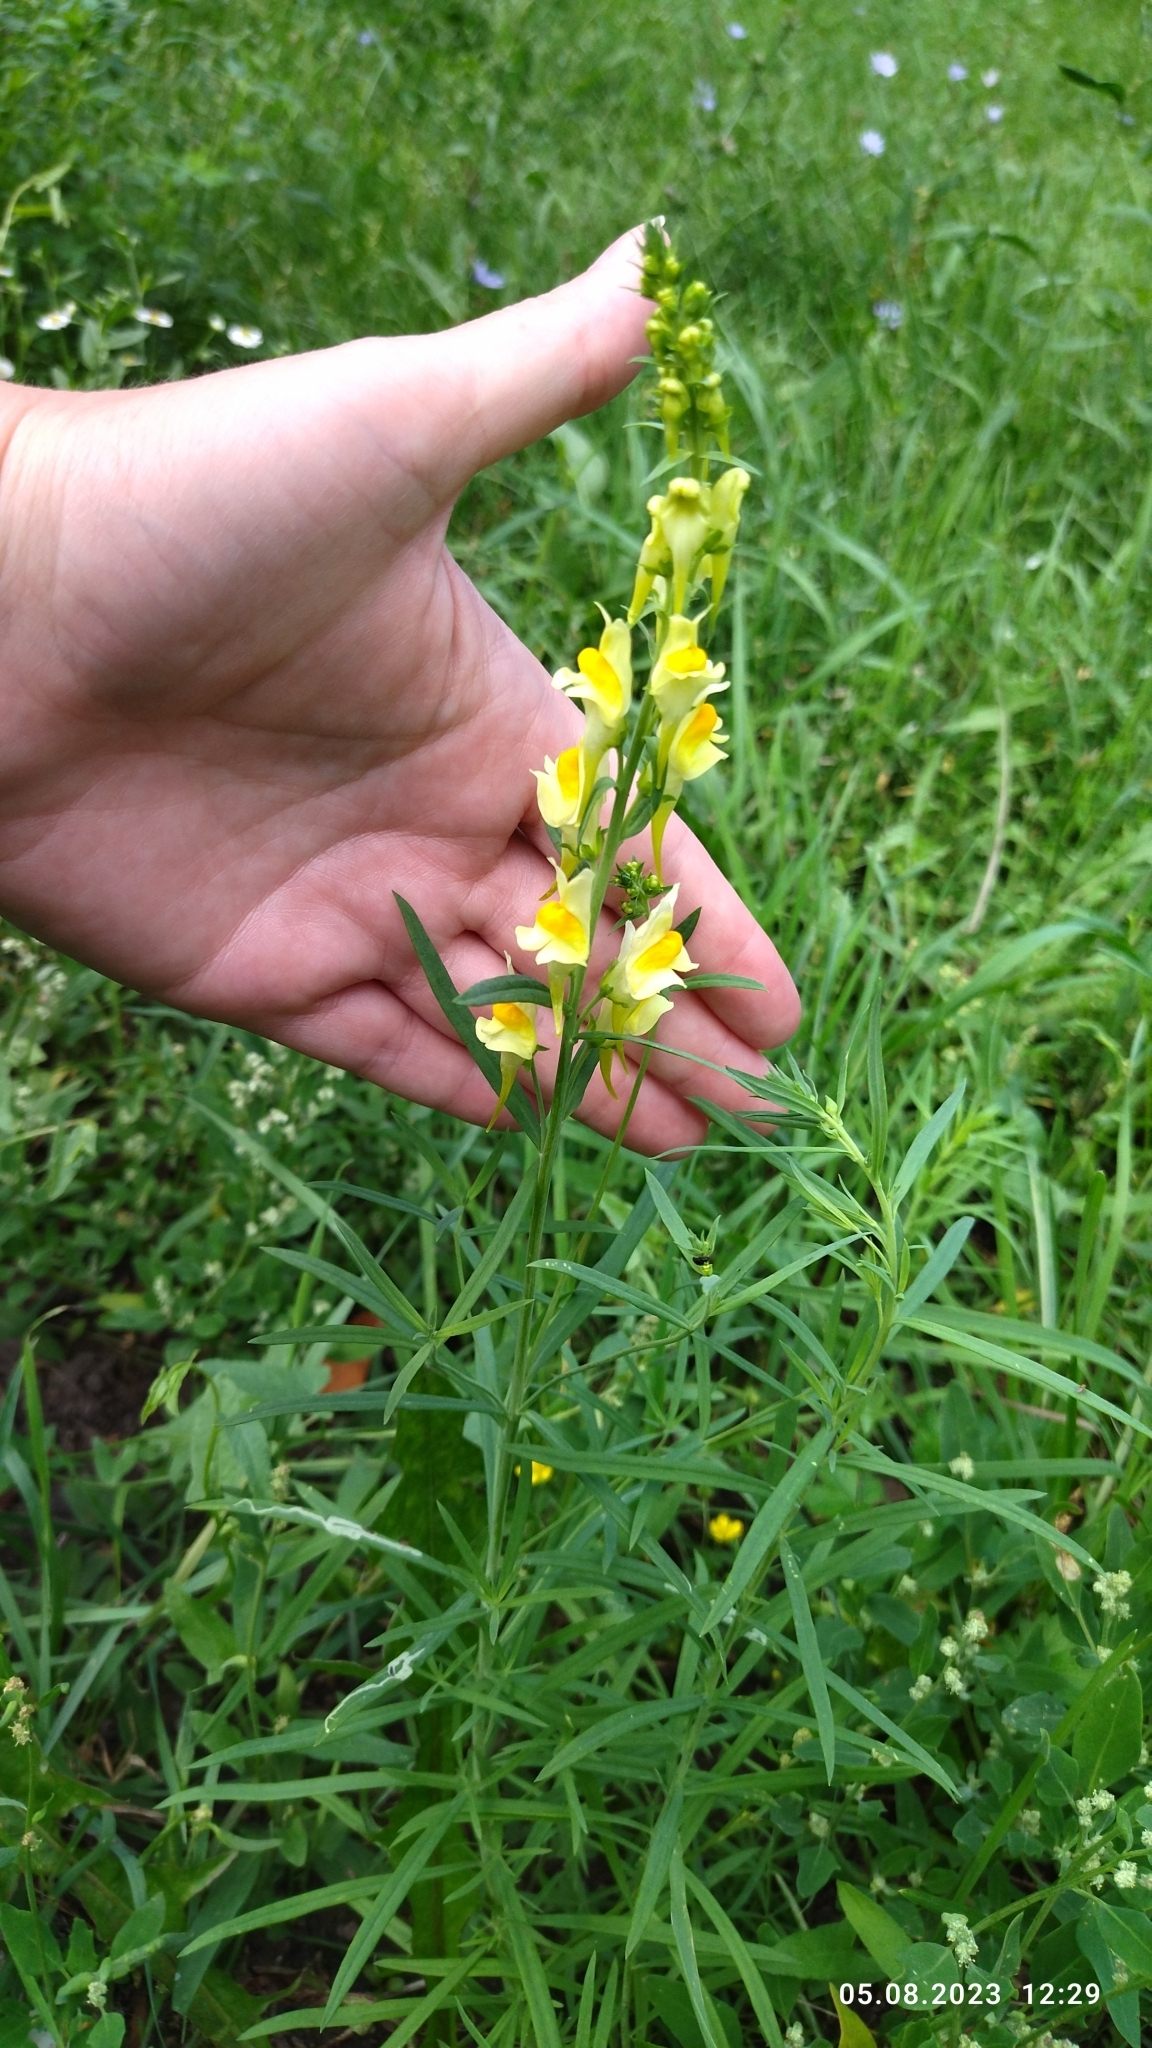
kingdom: Plantae
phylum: Tracheophyta
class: Magnoliopsida
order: Lamiales
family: Plantaginaceae
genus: Linaria
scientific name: Linaria vulgaris
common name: Butter and eggs
